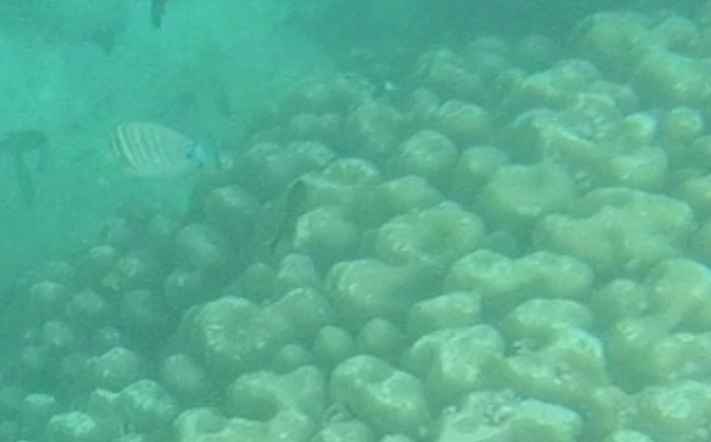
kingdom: Animalia
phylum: Chordata
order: Perciformes
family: Acanthuridae
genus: Zebrasoma
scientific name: Zebrasoma desjardinii
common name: Desjardin's sailfin tang
